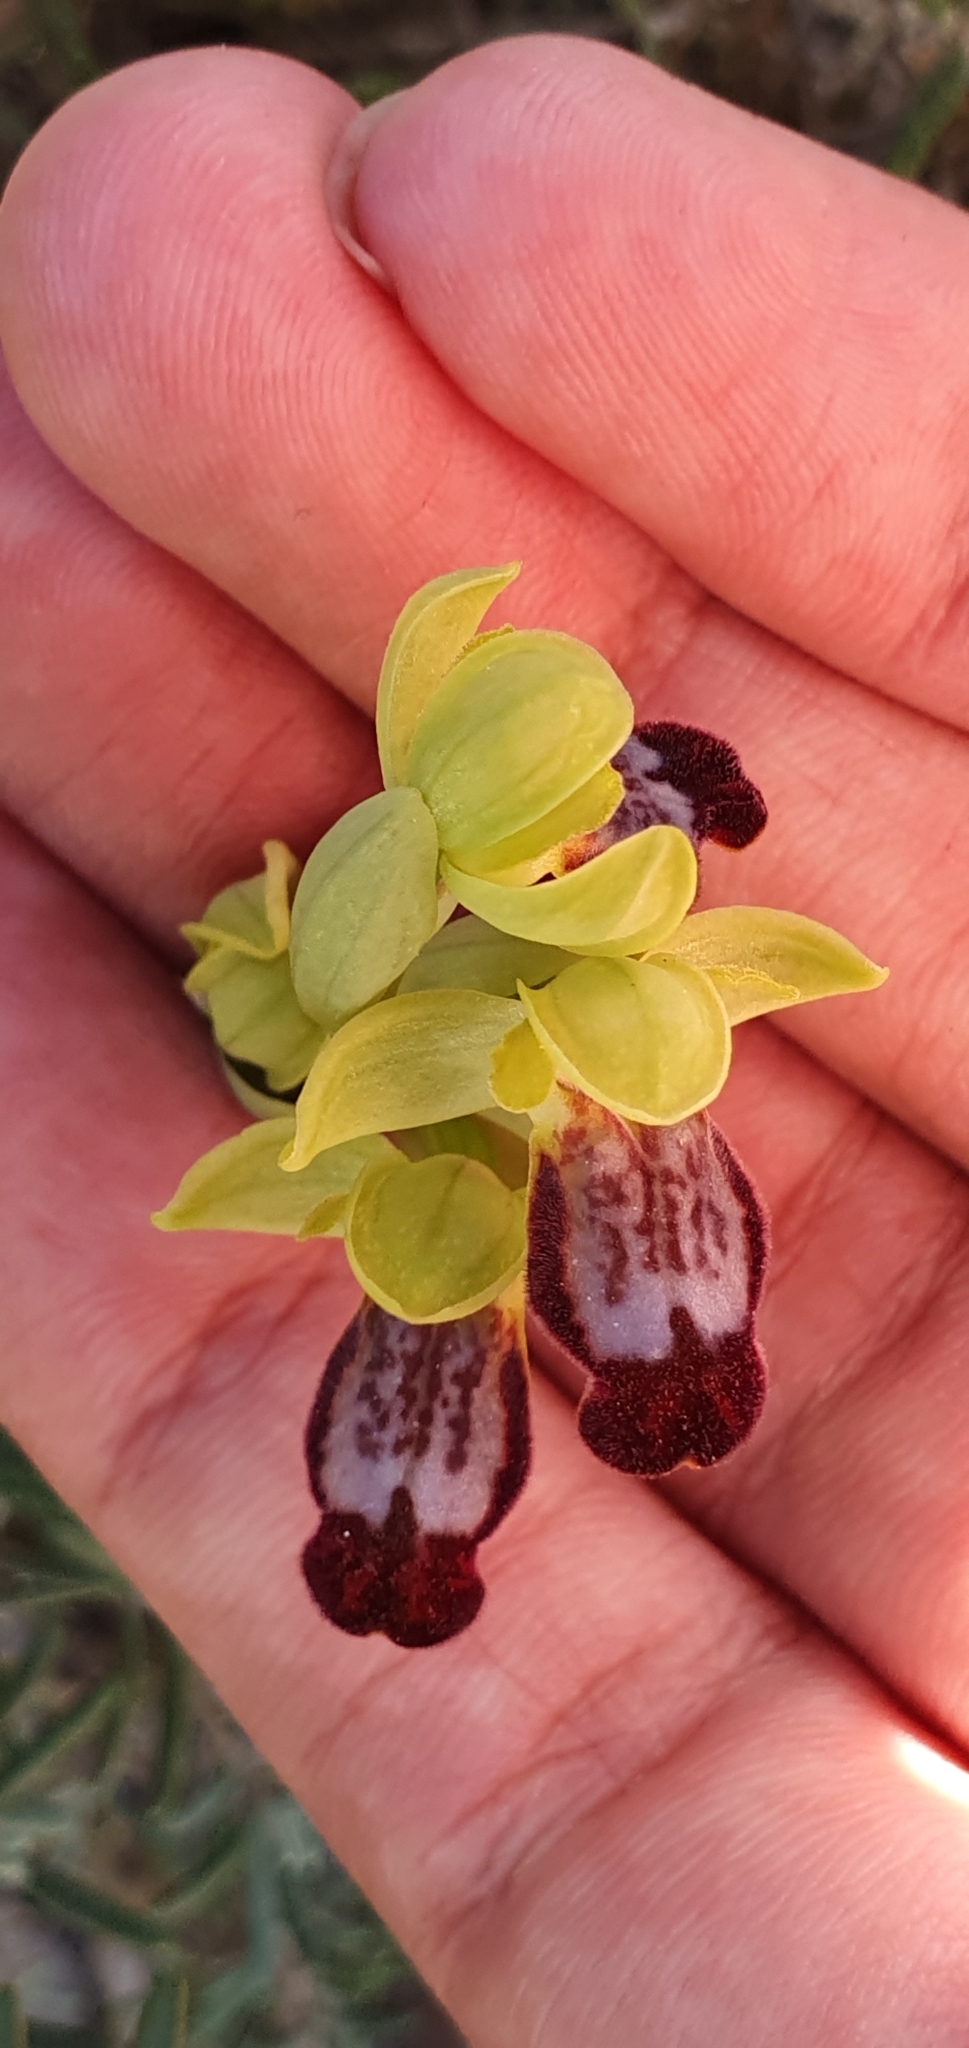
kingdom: Plantae
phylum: Tracheophyta
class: Liliopsida
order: Asparagales
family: Orchidaceae
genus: Ophrys
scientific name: Ophrys fusca
